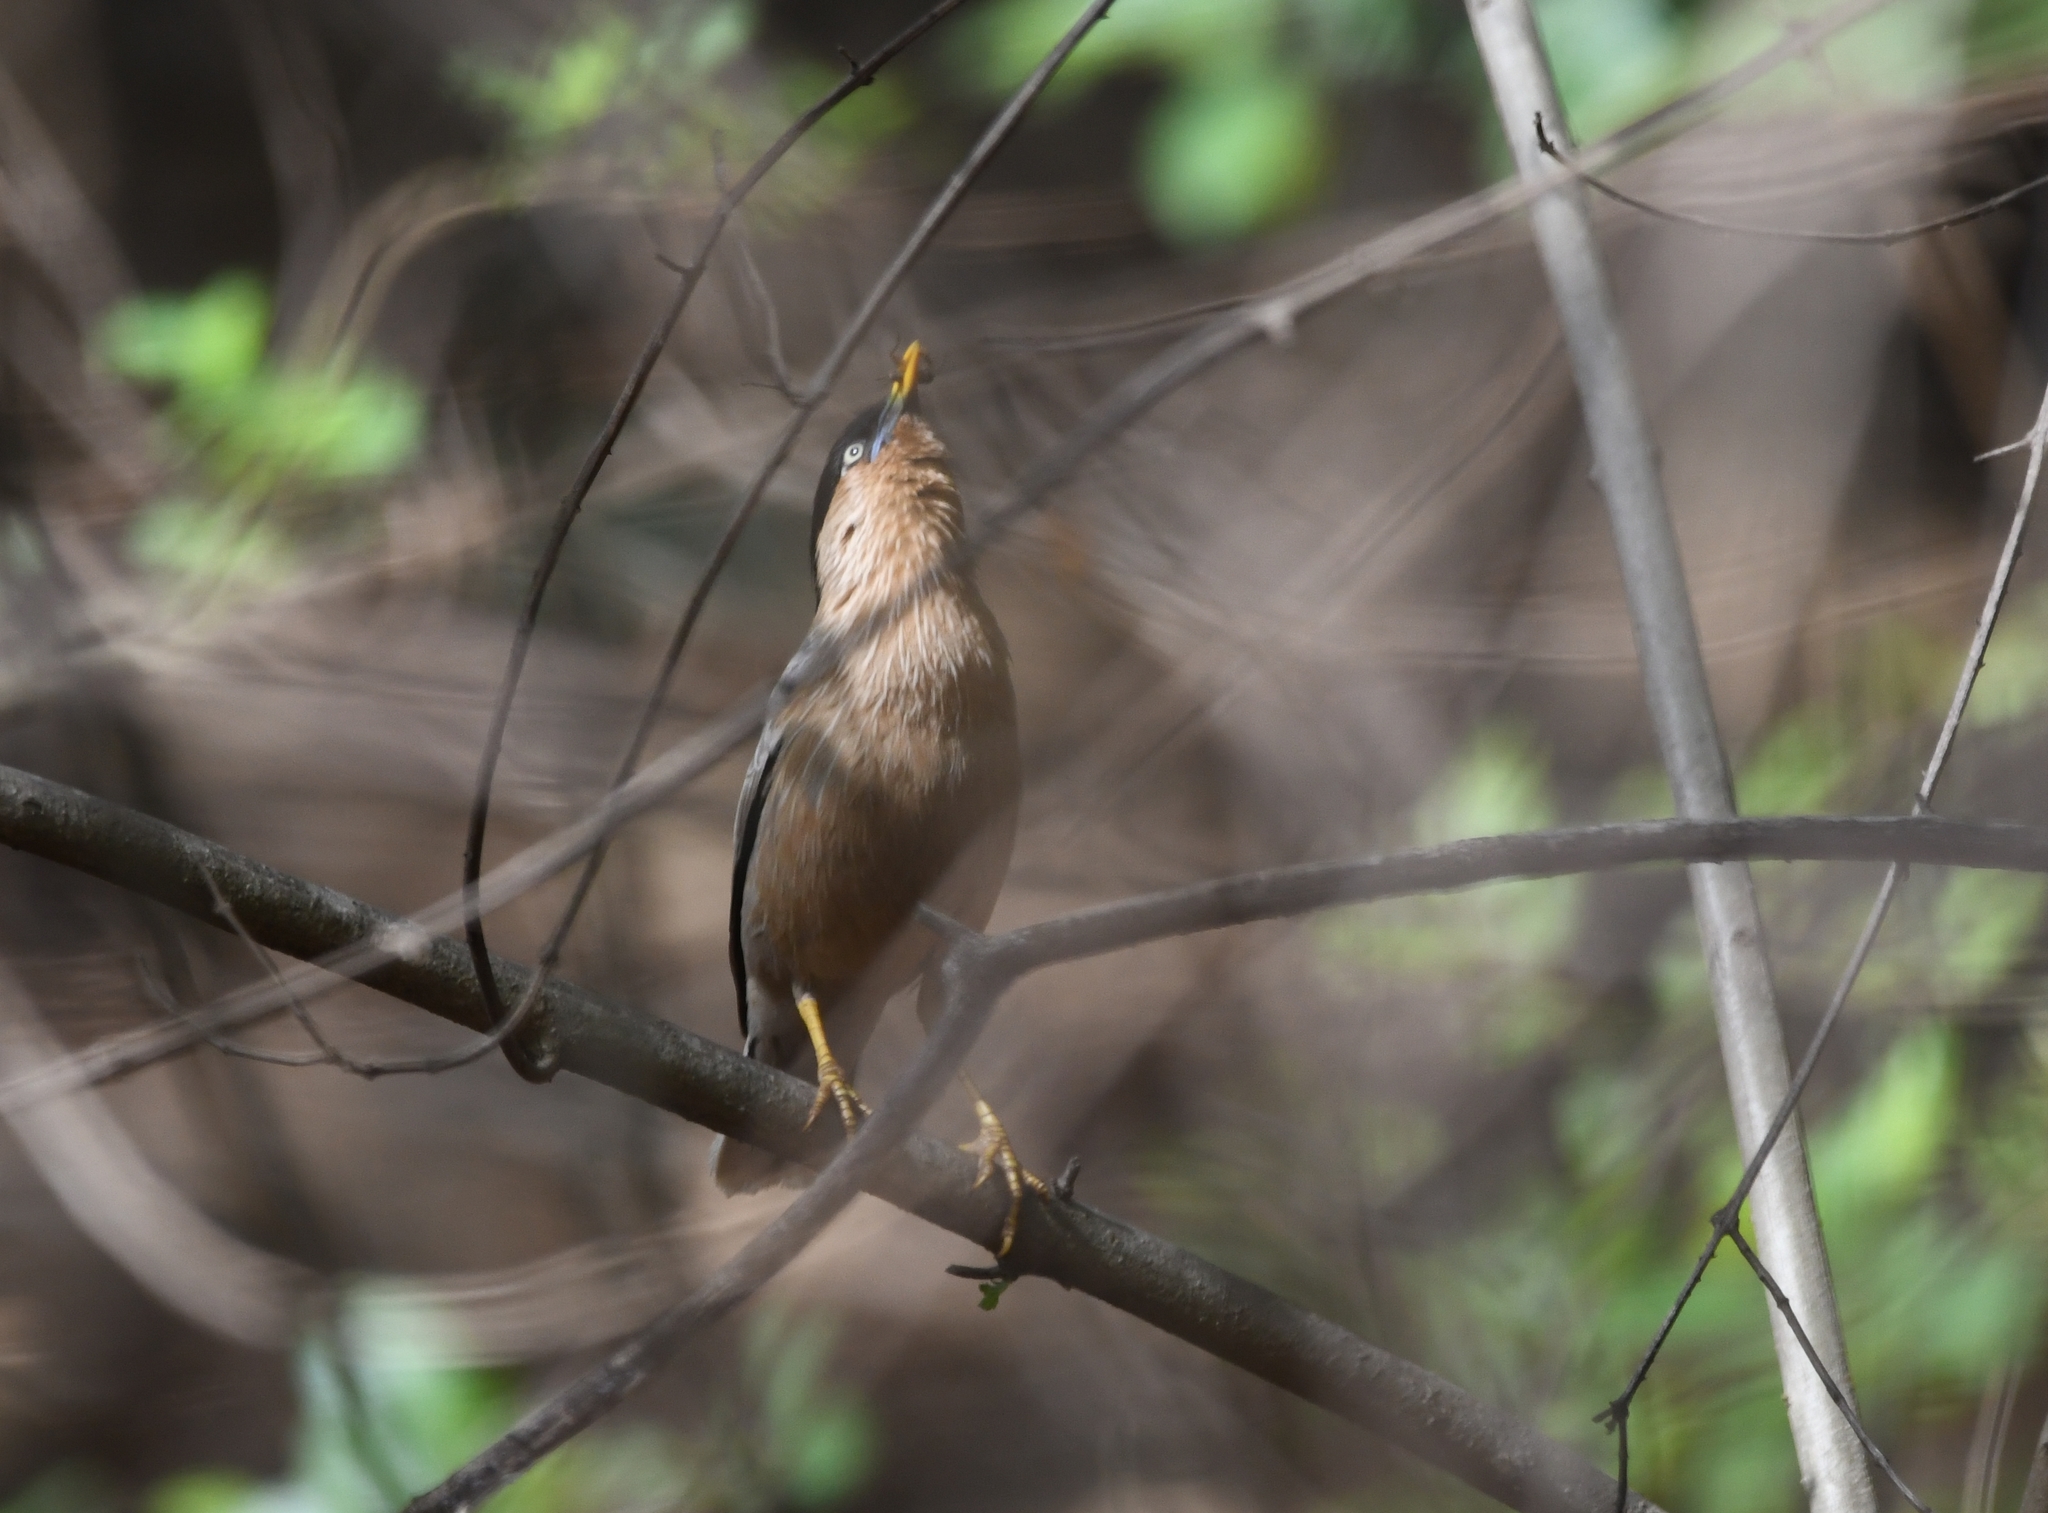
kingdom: Animalia
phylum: Chordata
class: Aves
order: Passeriformes
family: Sturnidae
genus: Sturnia
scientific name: Sturnia pagodarum
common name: Brahminy starling
